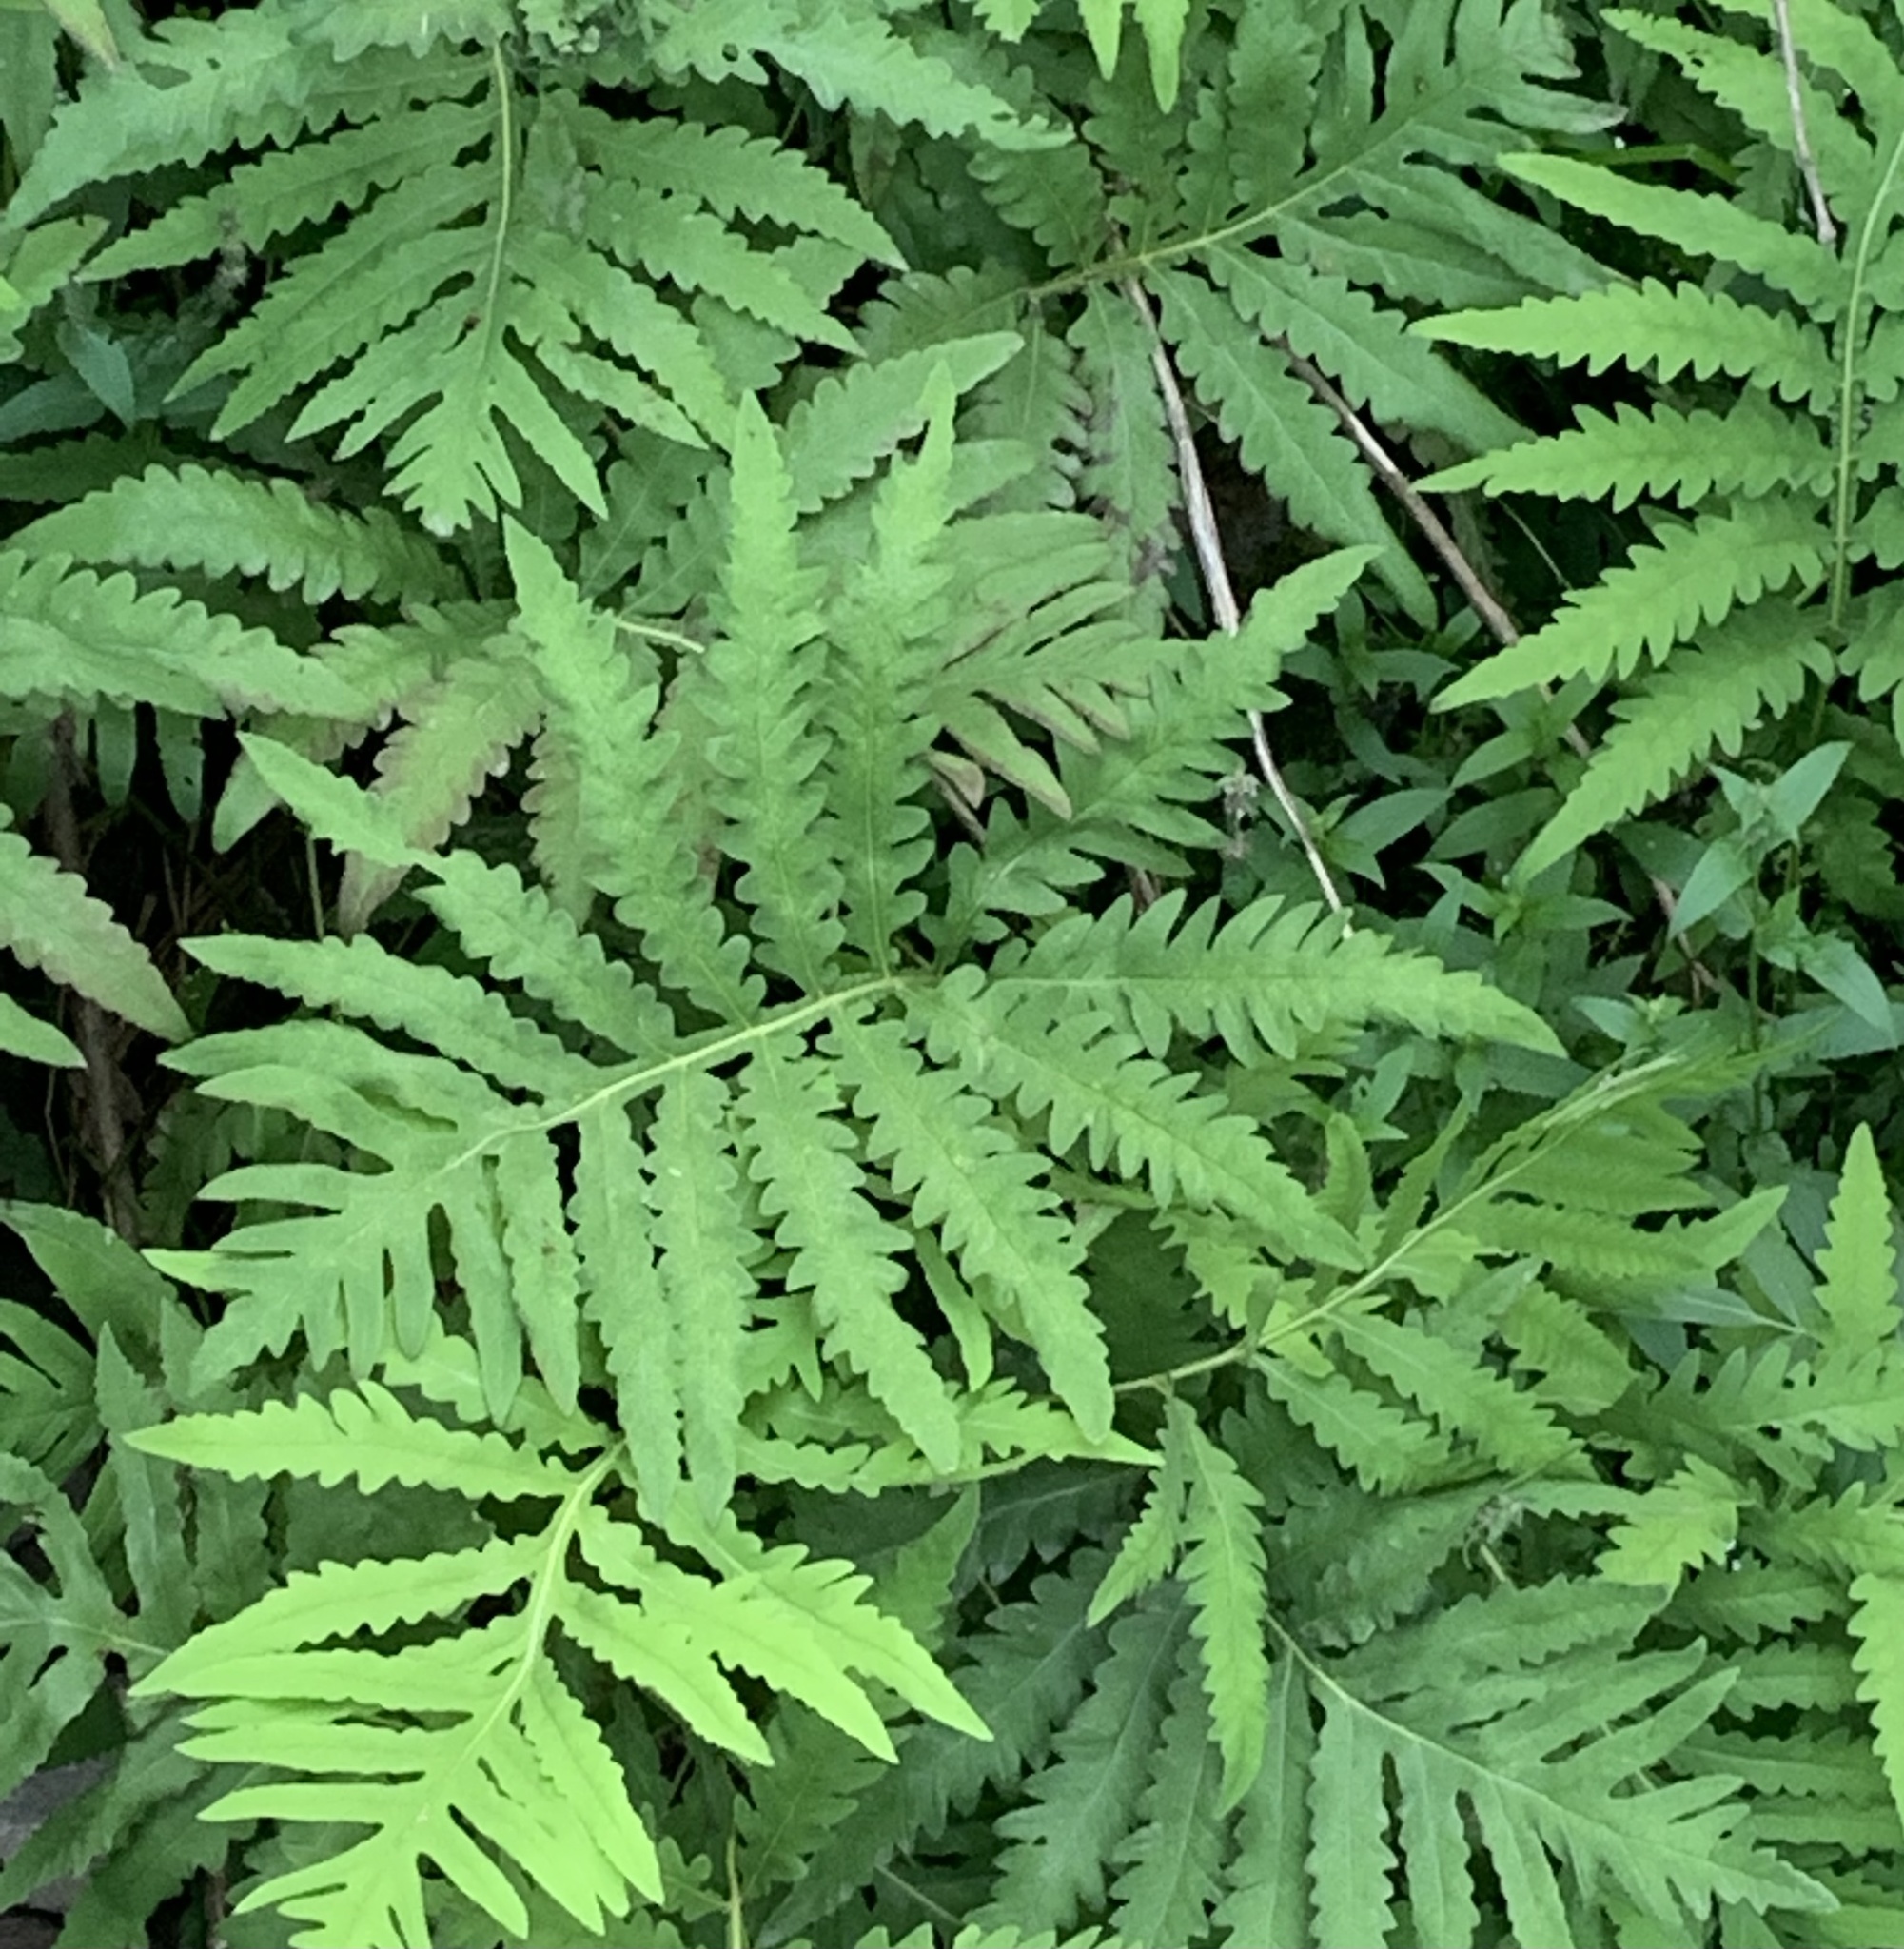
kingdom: Plantae
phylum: Tracheophyta
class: Polypodiopsida
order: Polypodiales
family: Onocleaceae
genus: Onoclea
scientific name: Onoclea sensibilis
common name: Sensitive fern
